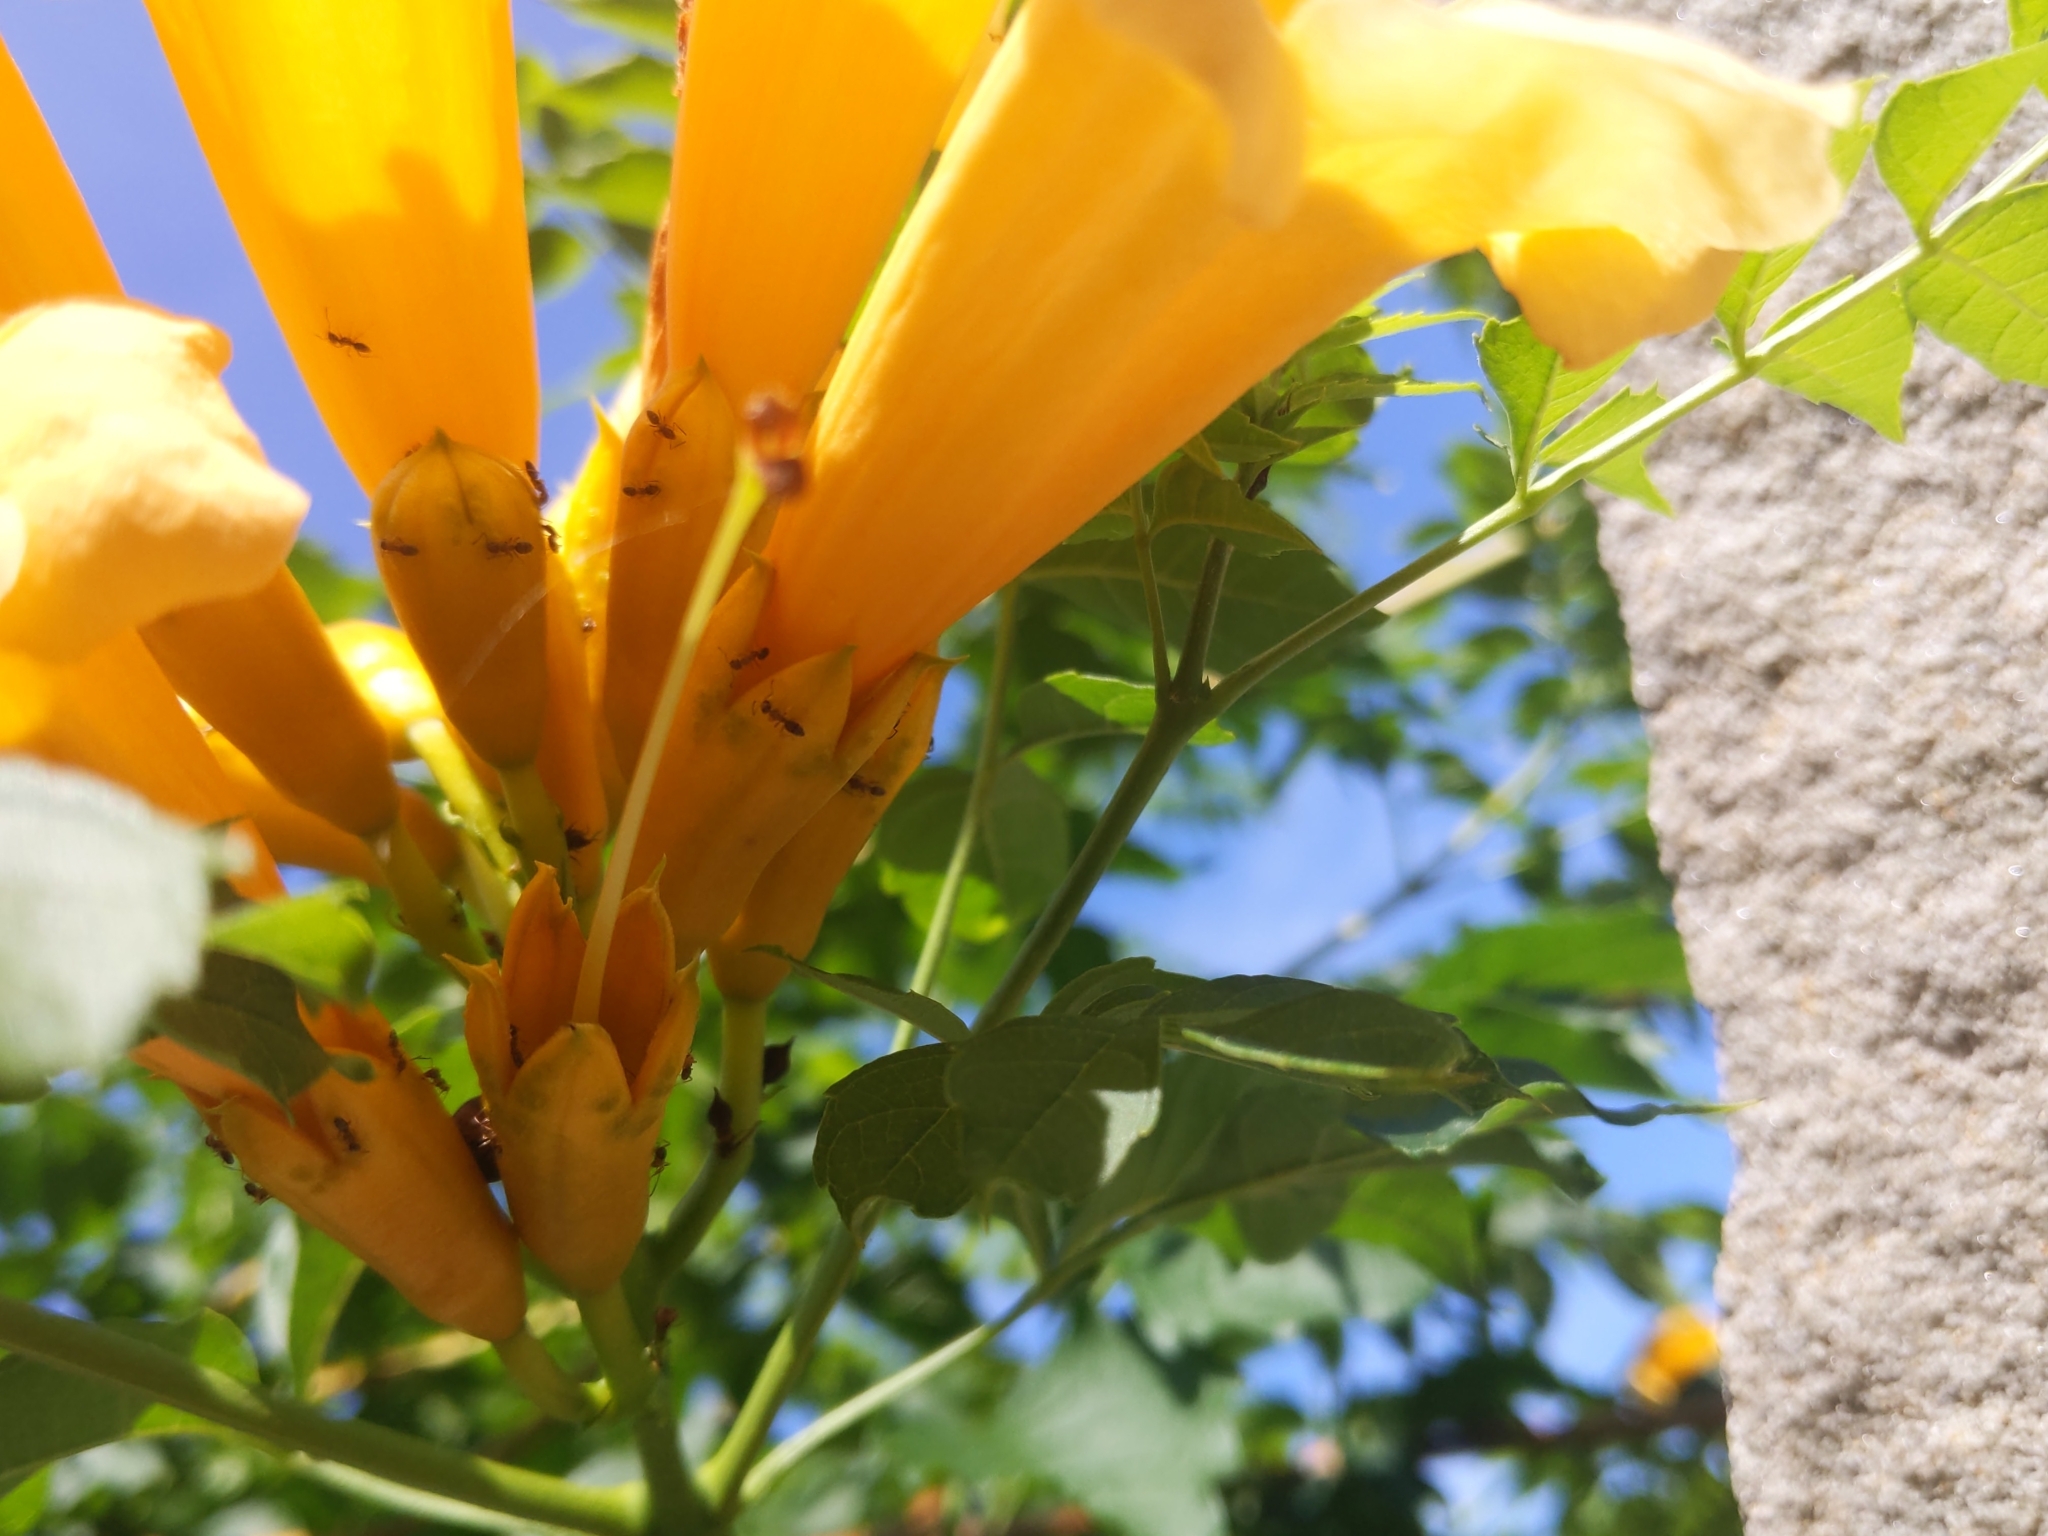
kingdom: Animalia
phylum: Arthropoda
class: Insecta
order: Hymenoptera
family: Formicidae
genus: Tapinoma
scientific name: Tapinoma sessile
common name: Odorous house ant
